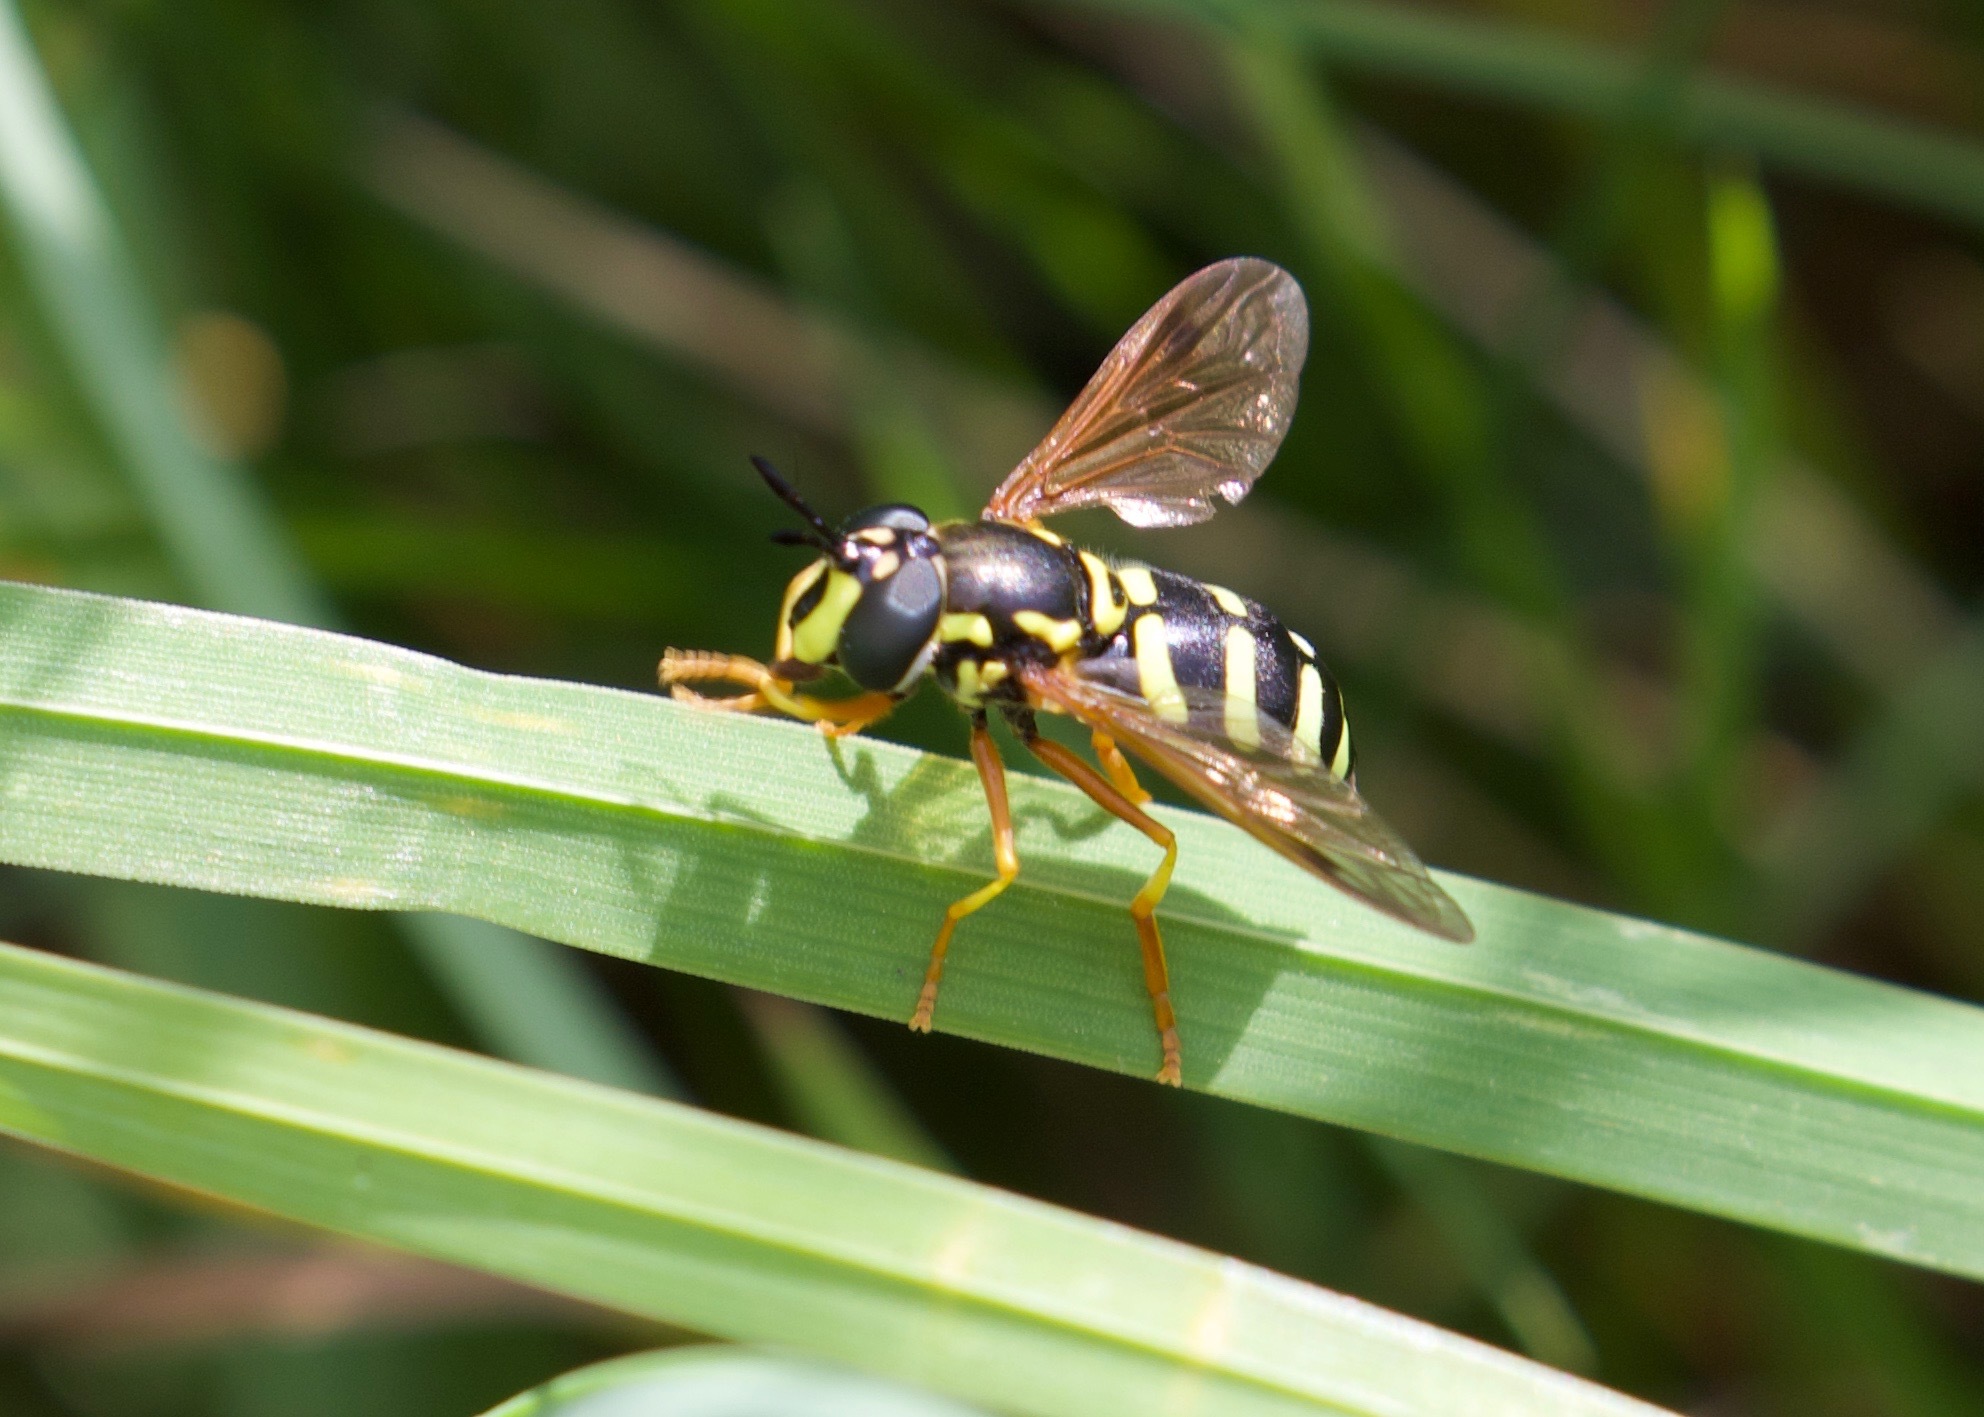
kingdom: Animalia
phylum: Arthropoda
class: Insecta
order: Diptera
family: Syrphidae
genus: Chrysotoxum
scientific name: Chrysotoxum festivum
